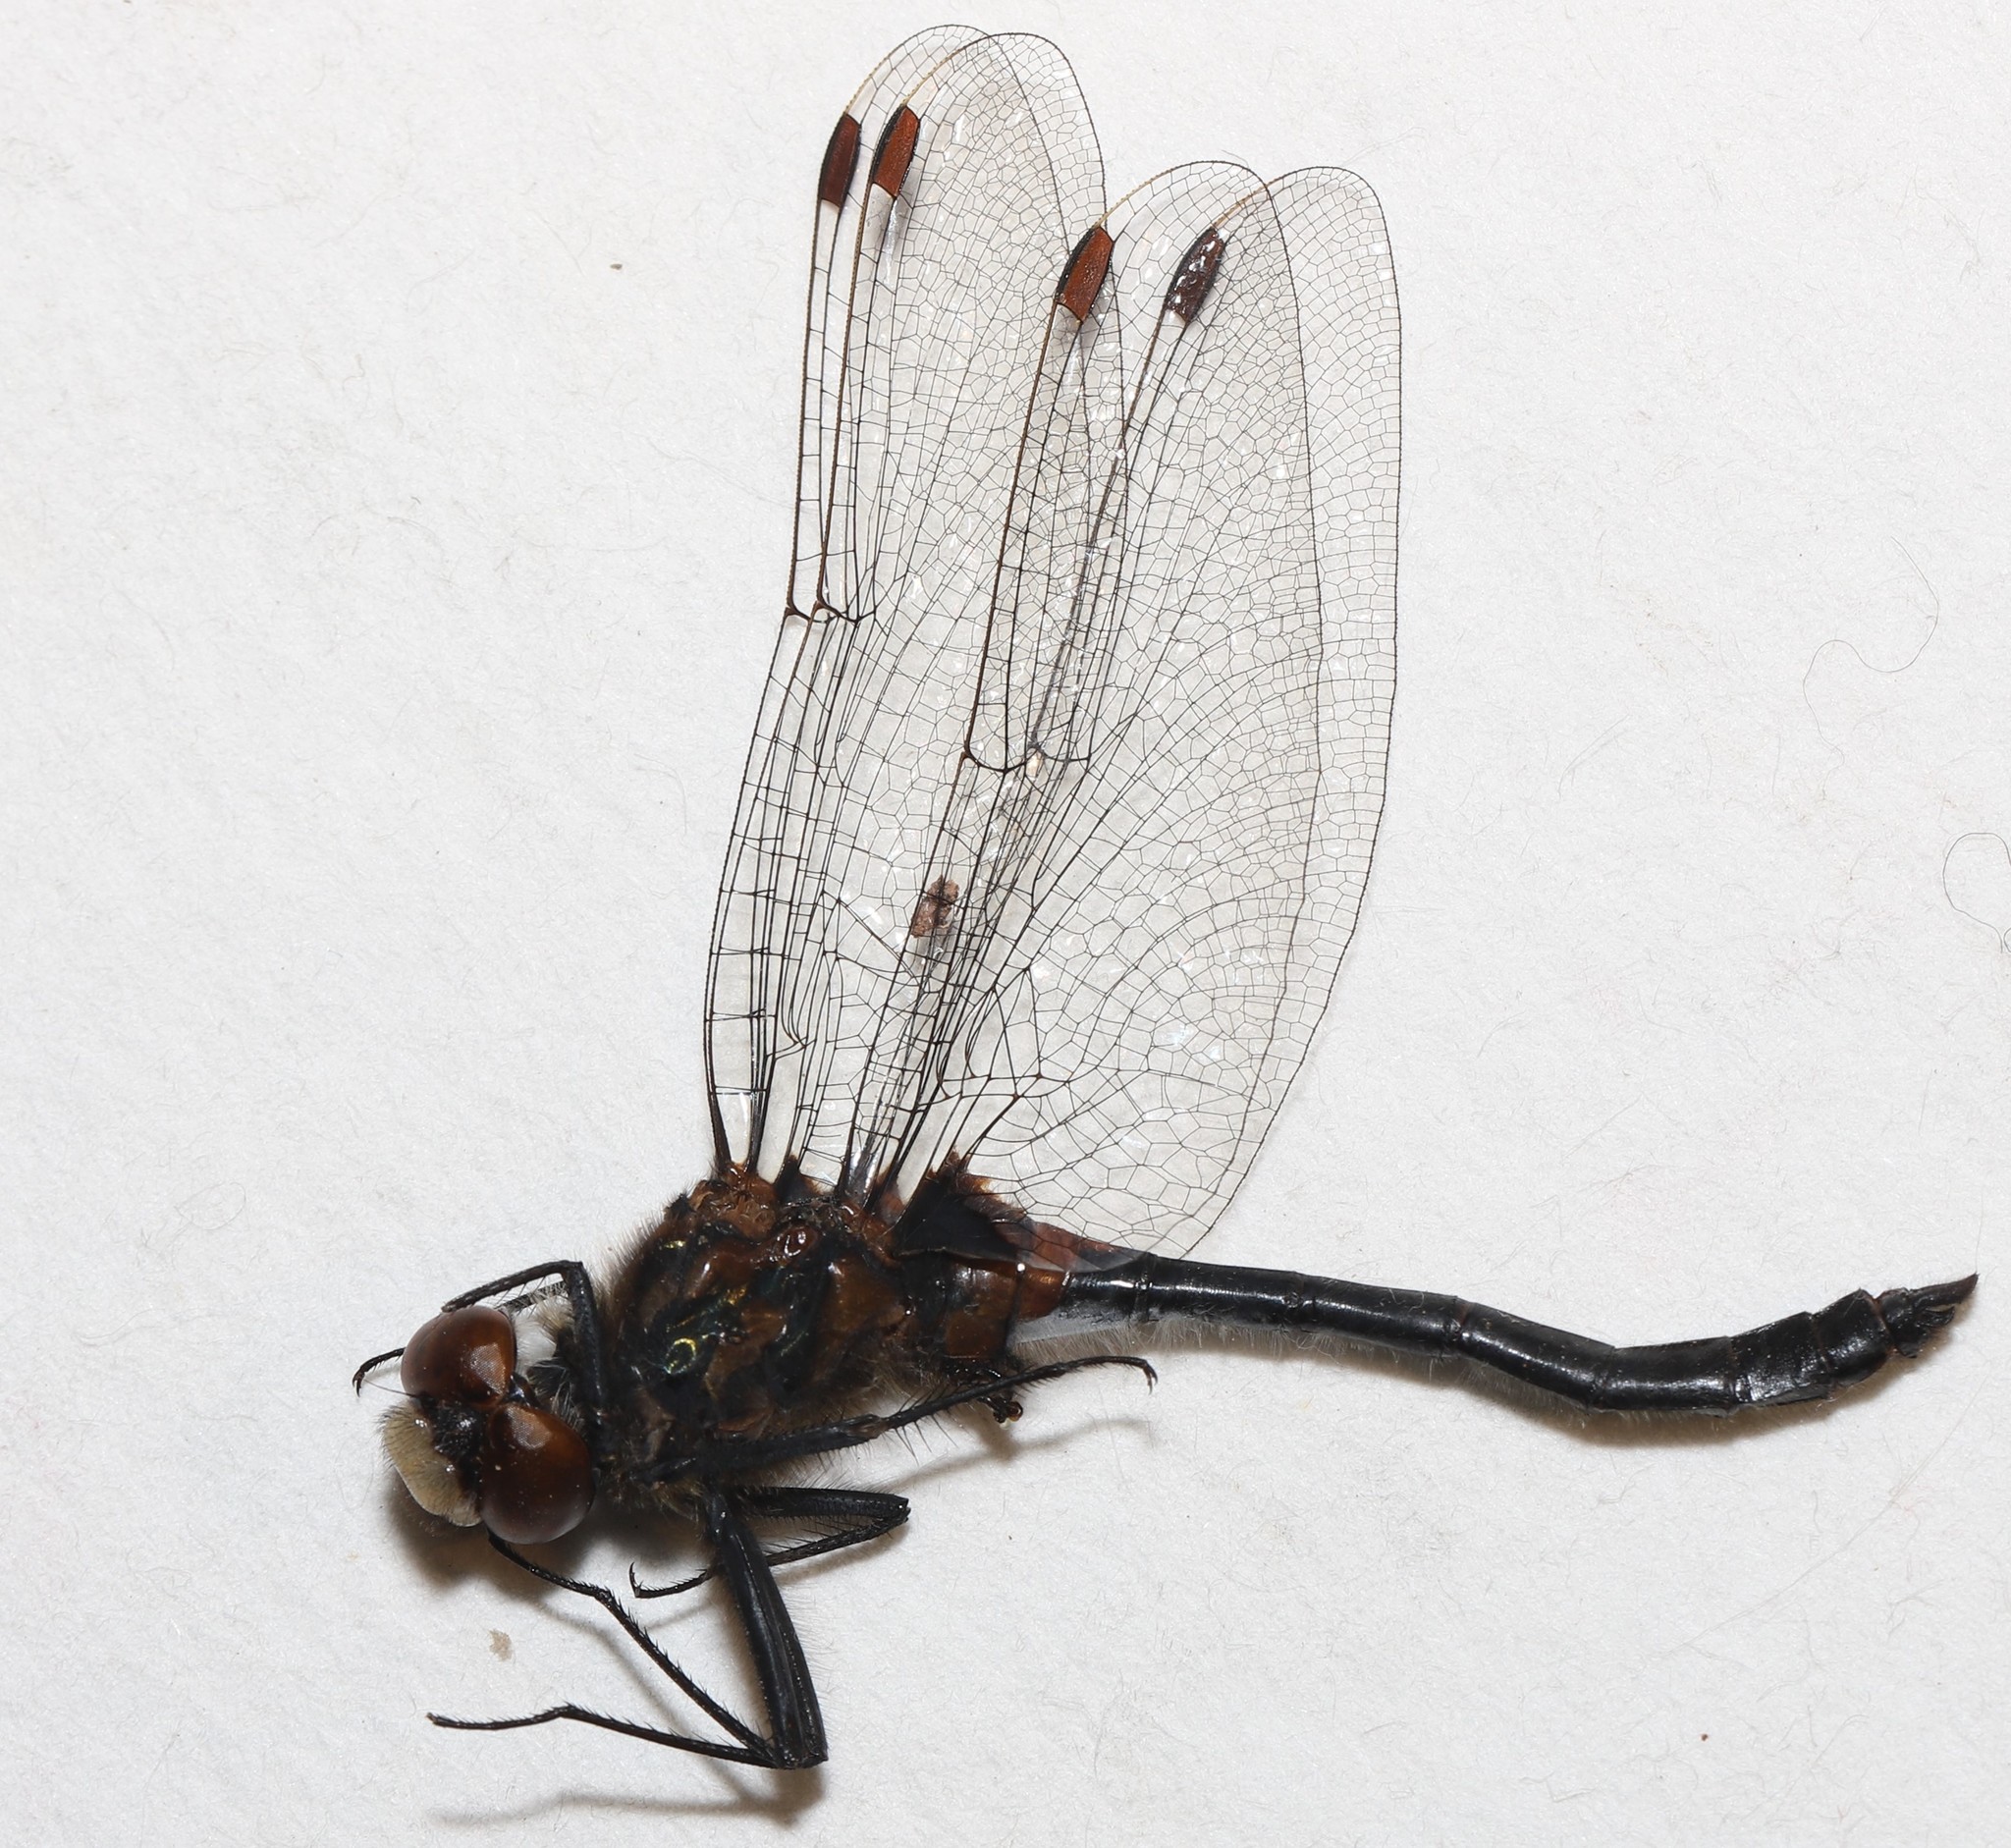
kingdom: Animalia
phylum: Arthropoda
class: Insecta
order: Odonata
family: Libellulidae
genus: Leucorrhinia
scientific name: Leucorrhinia glacialis
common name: Crimson-ringed whiteface
